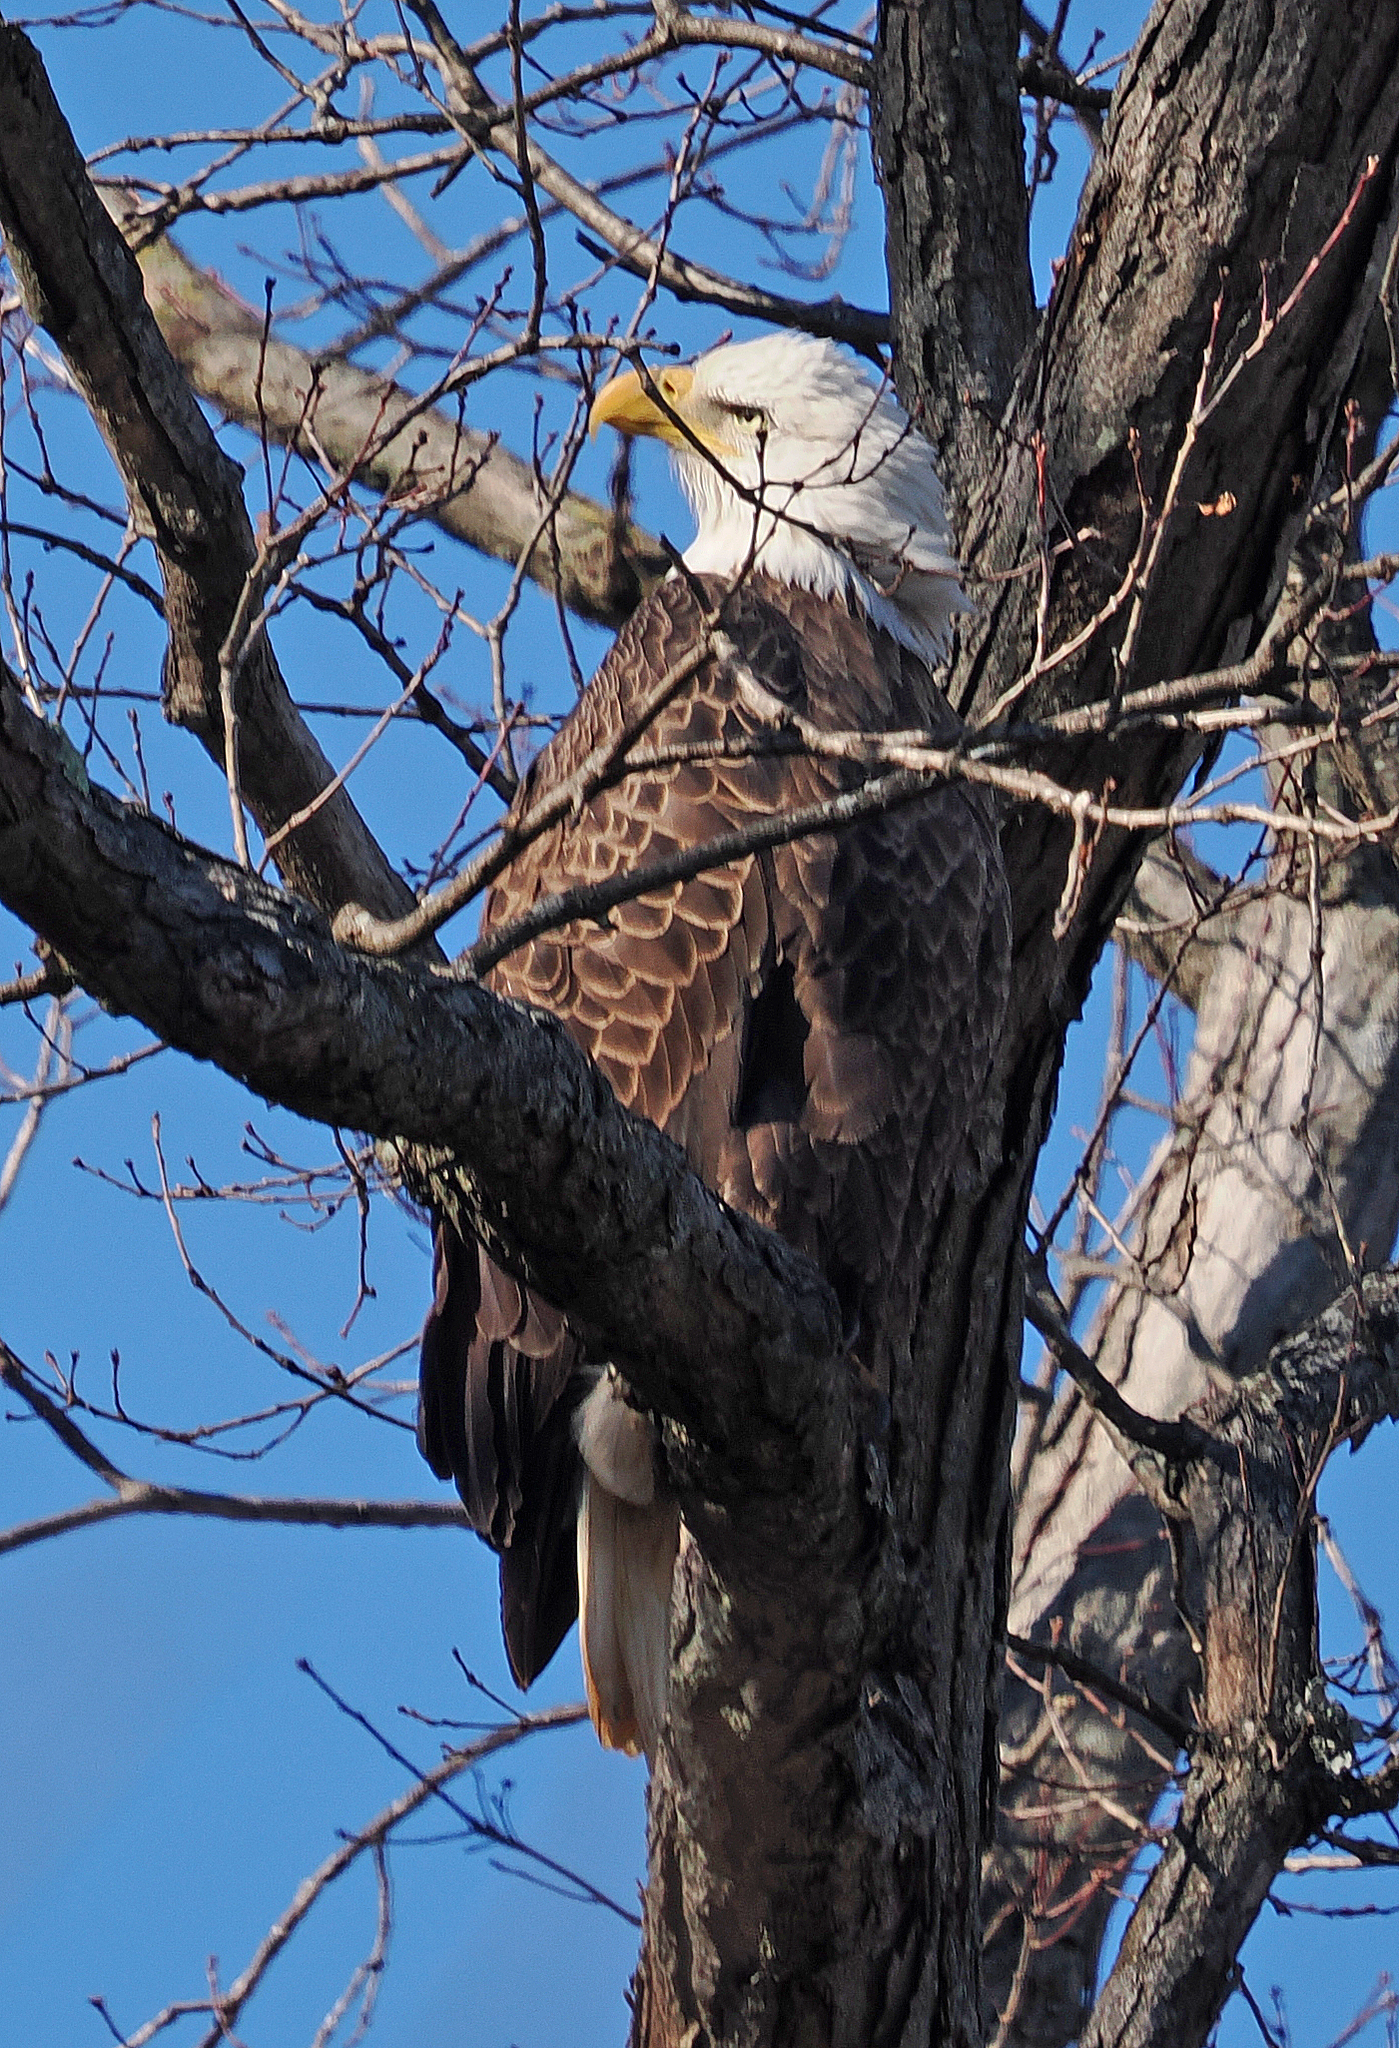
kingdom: Animalia
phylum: Chordata
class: Aves
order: Accipitriformes
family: Accipitridae
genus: Haliaeetus
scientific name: Haliaeetus leucocephalus
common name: Bald eagle
